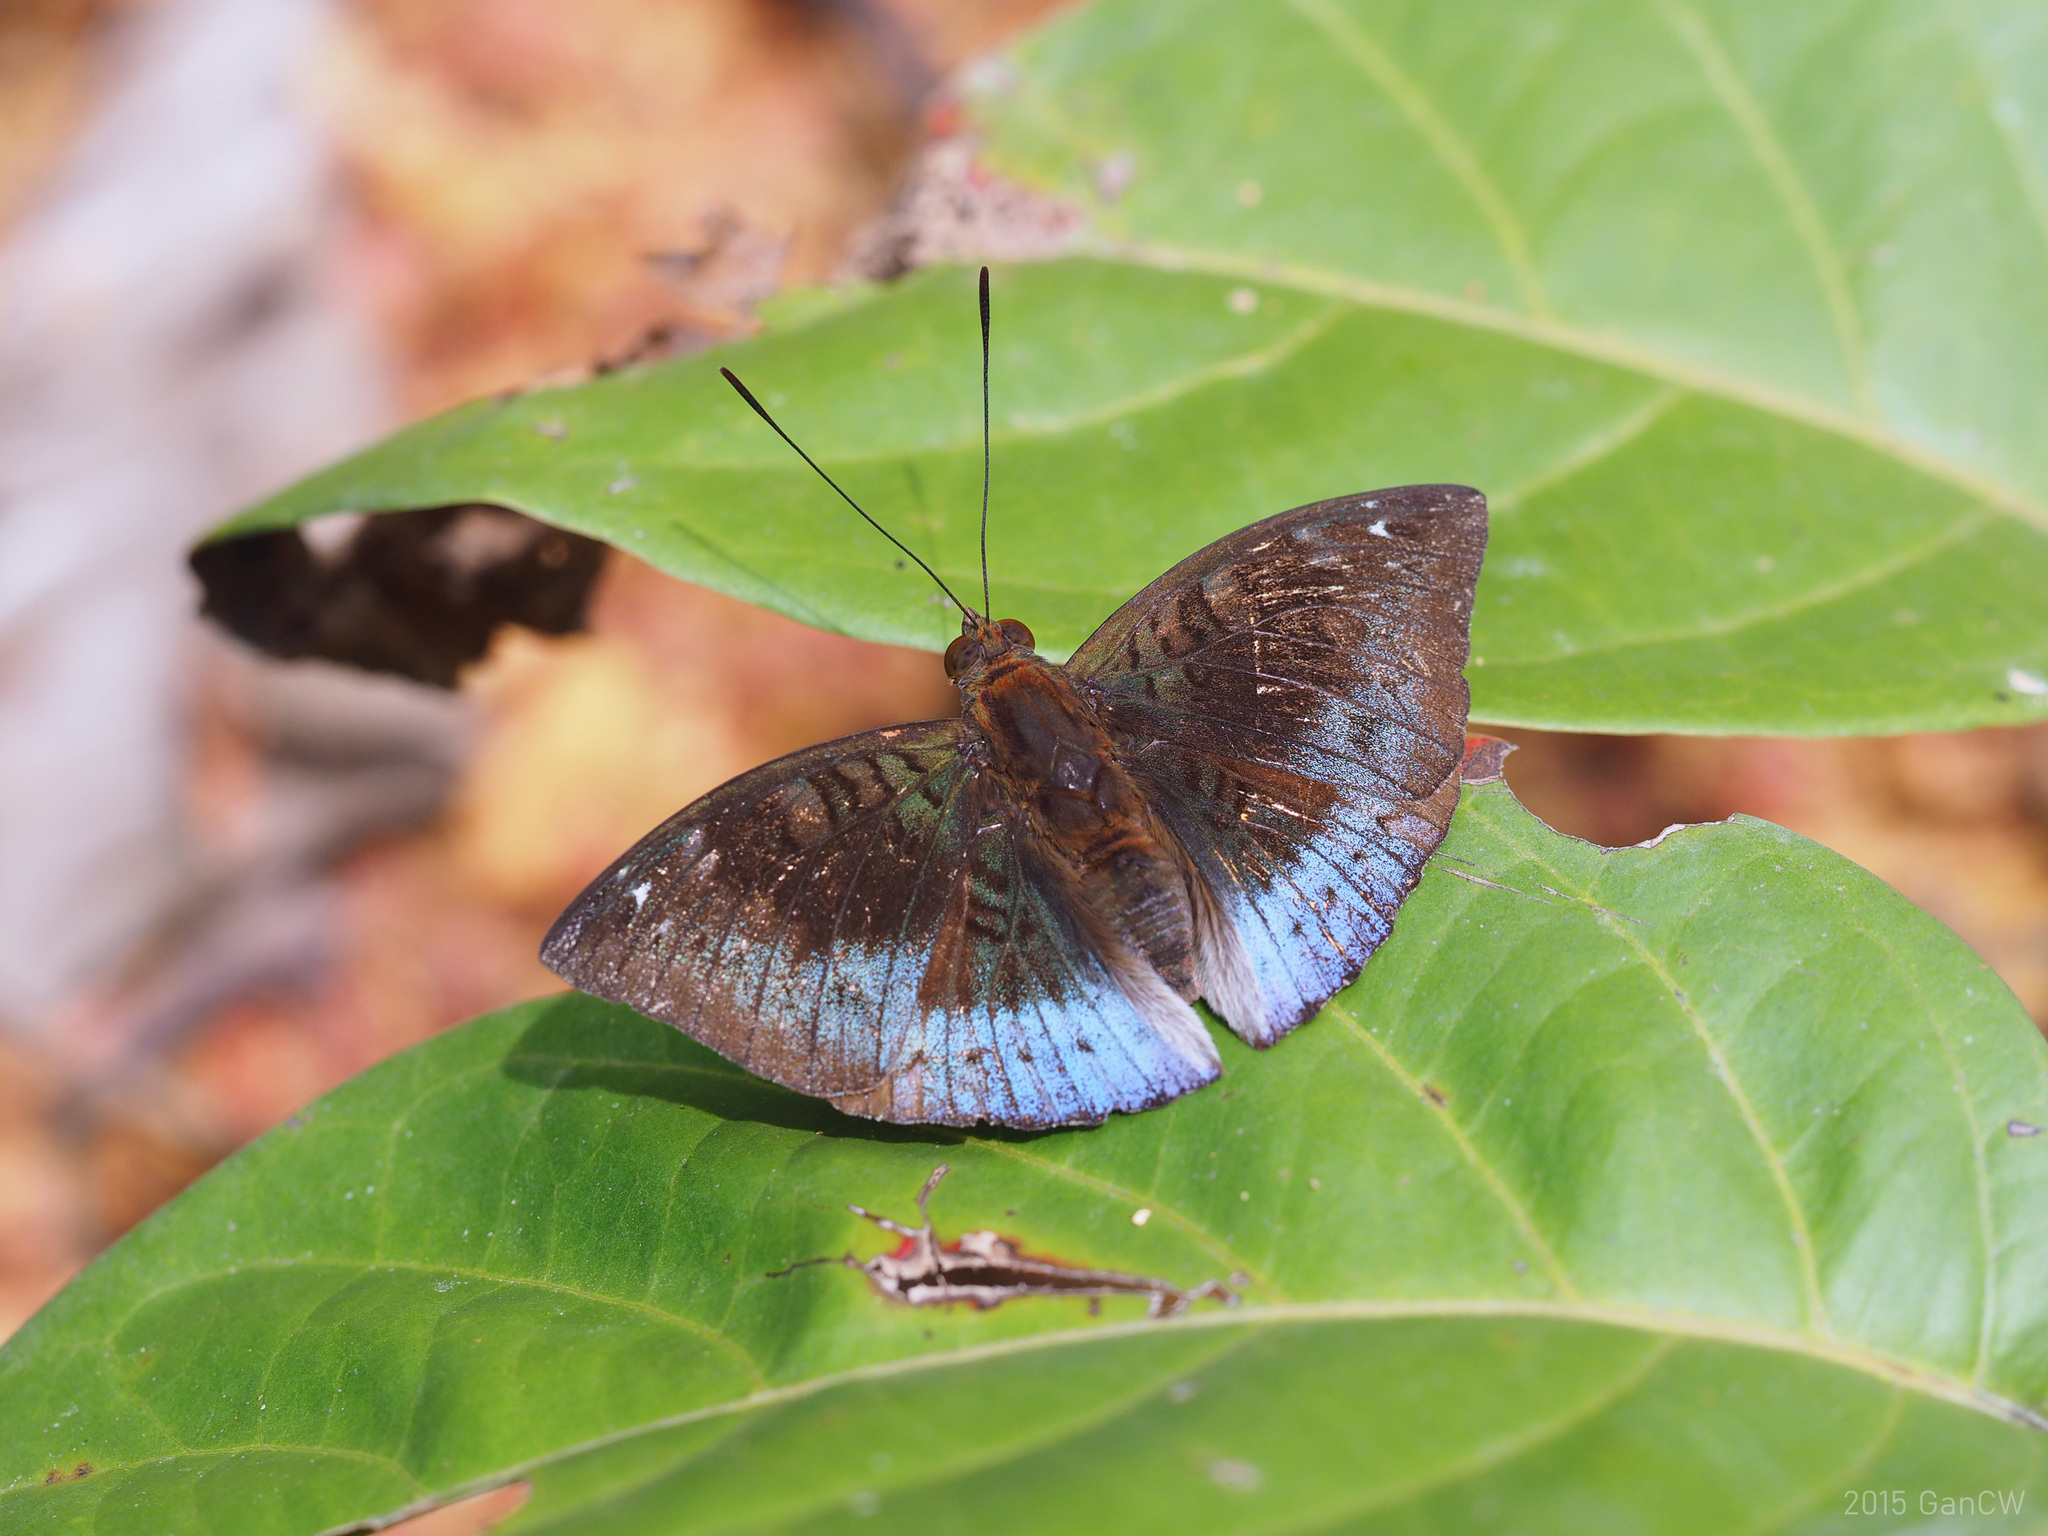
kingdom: Animalia
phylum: Arthropoda
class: Insecta
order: Lepidoptera
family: Nymphalidae
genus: Euthalia
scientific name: Euthalia monina
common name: Powdered baron
